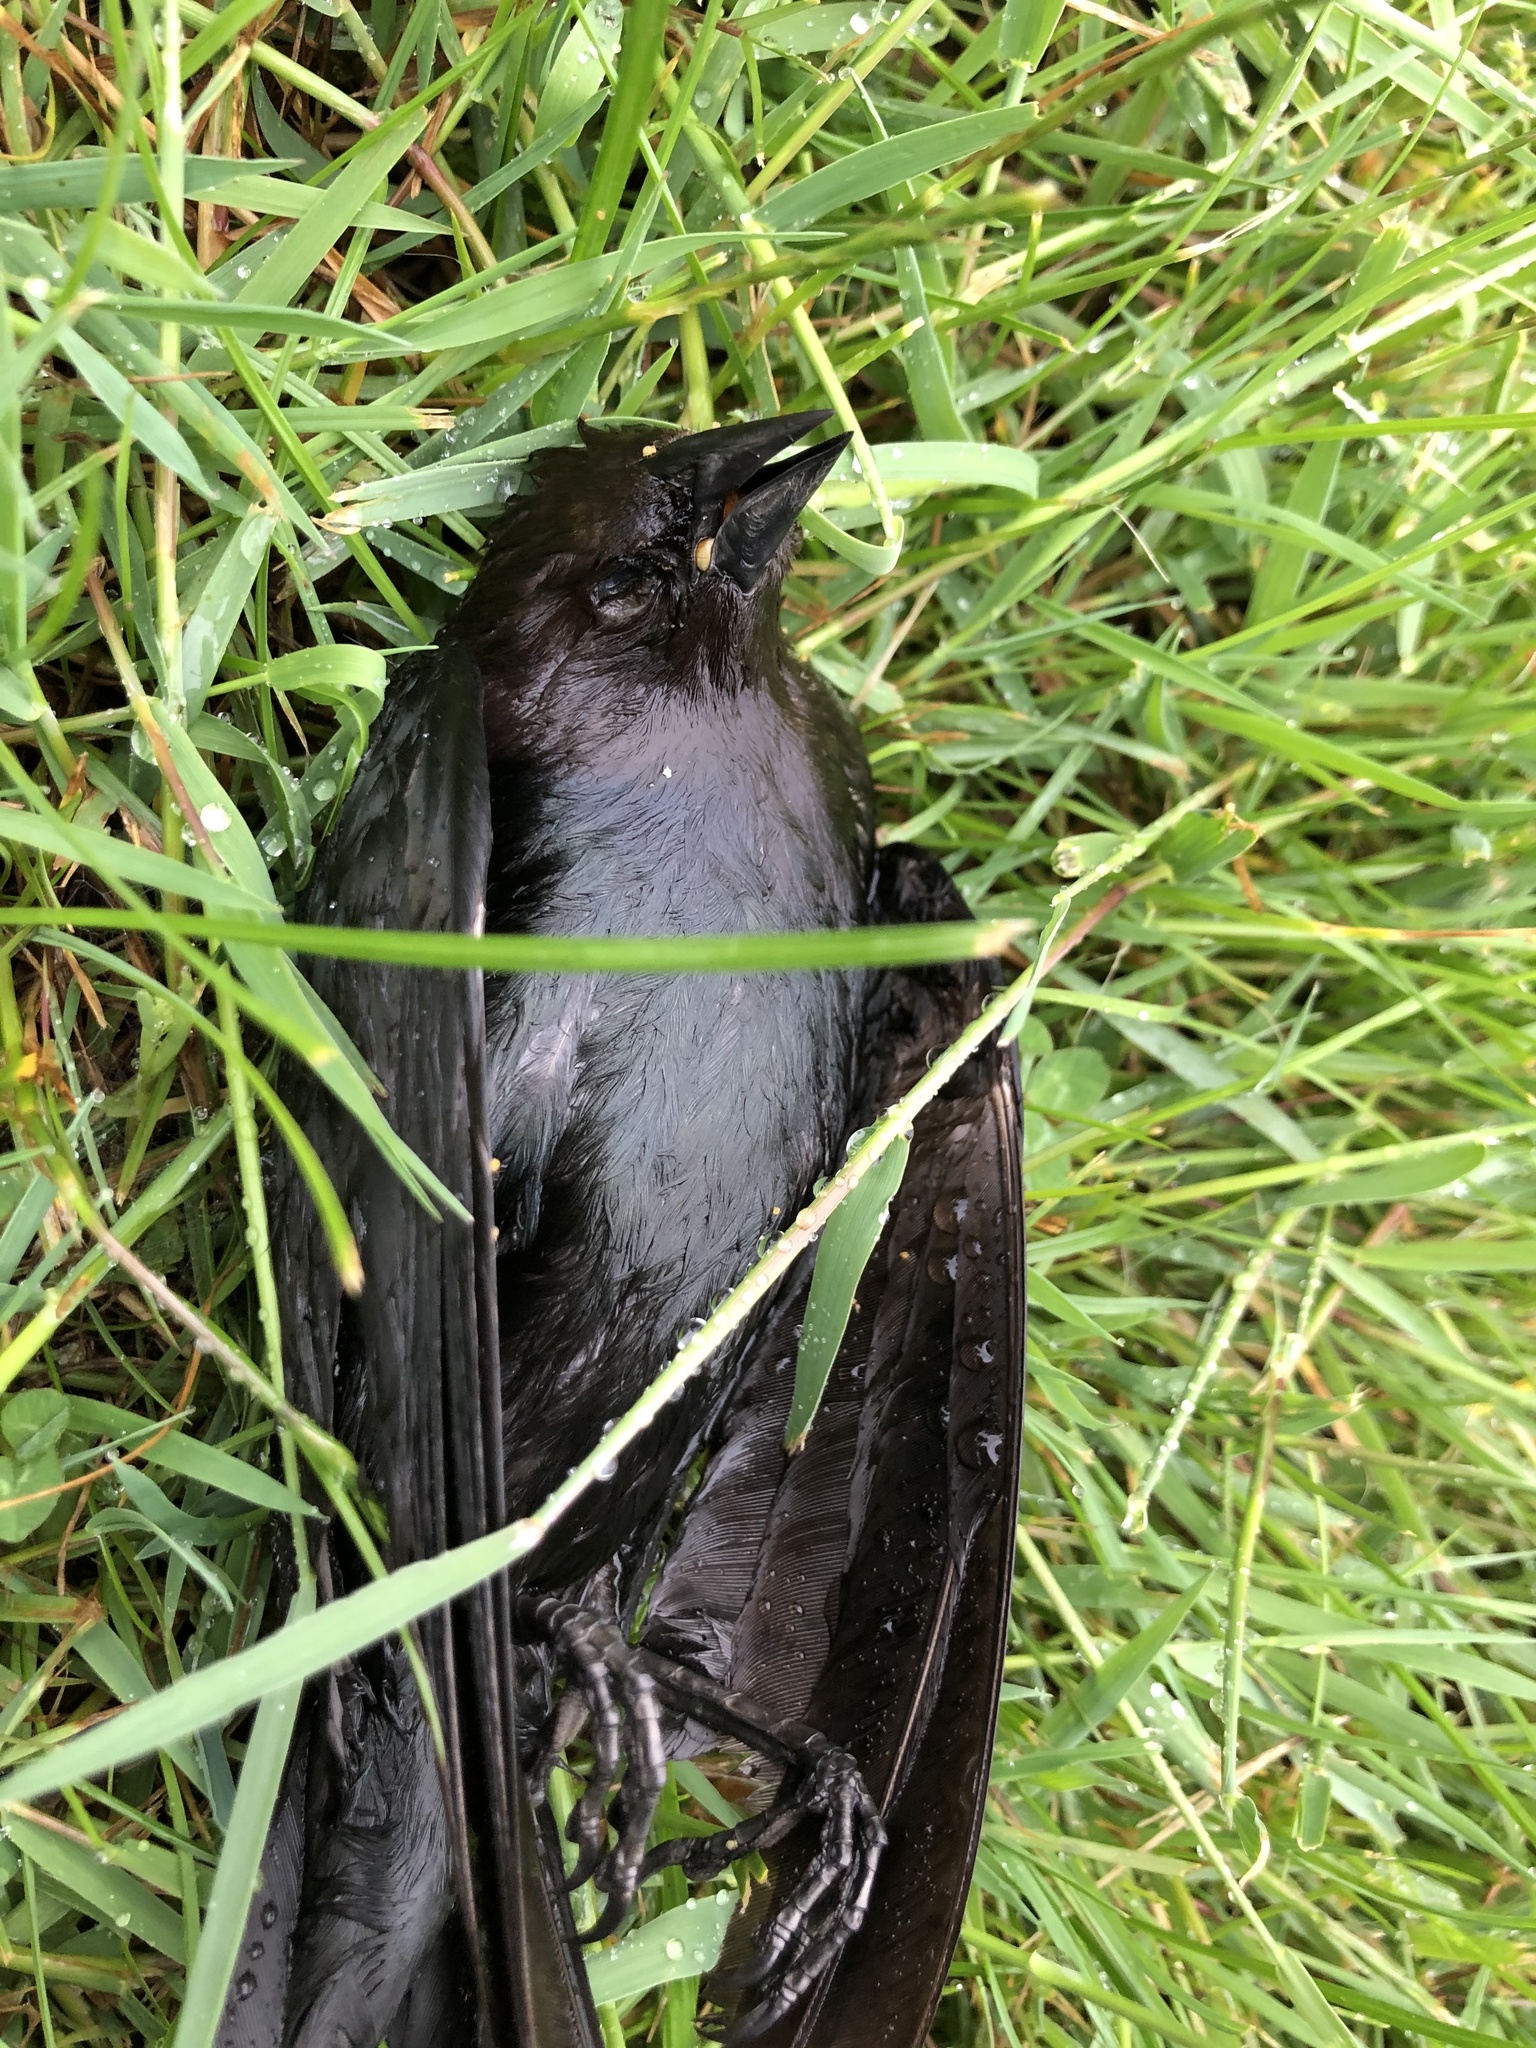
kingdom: Animalia
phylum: Chordata
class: Aves
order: Passeriformes
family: Icteridae
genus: Molothrus
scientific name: Molothrus ater
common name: Brown-headed cowbird
